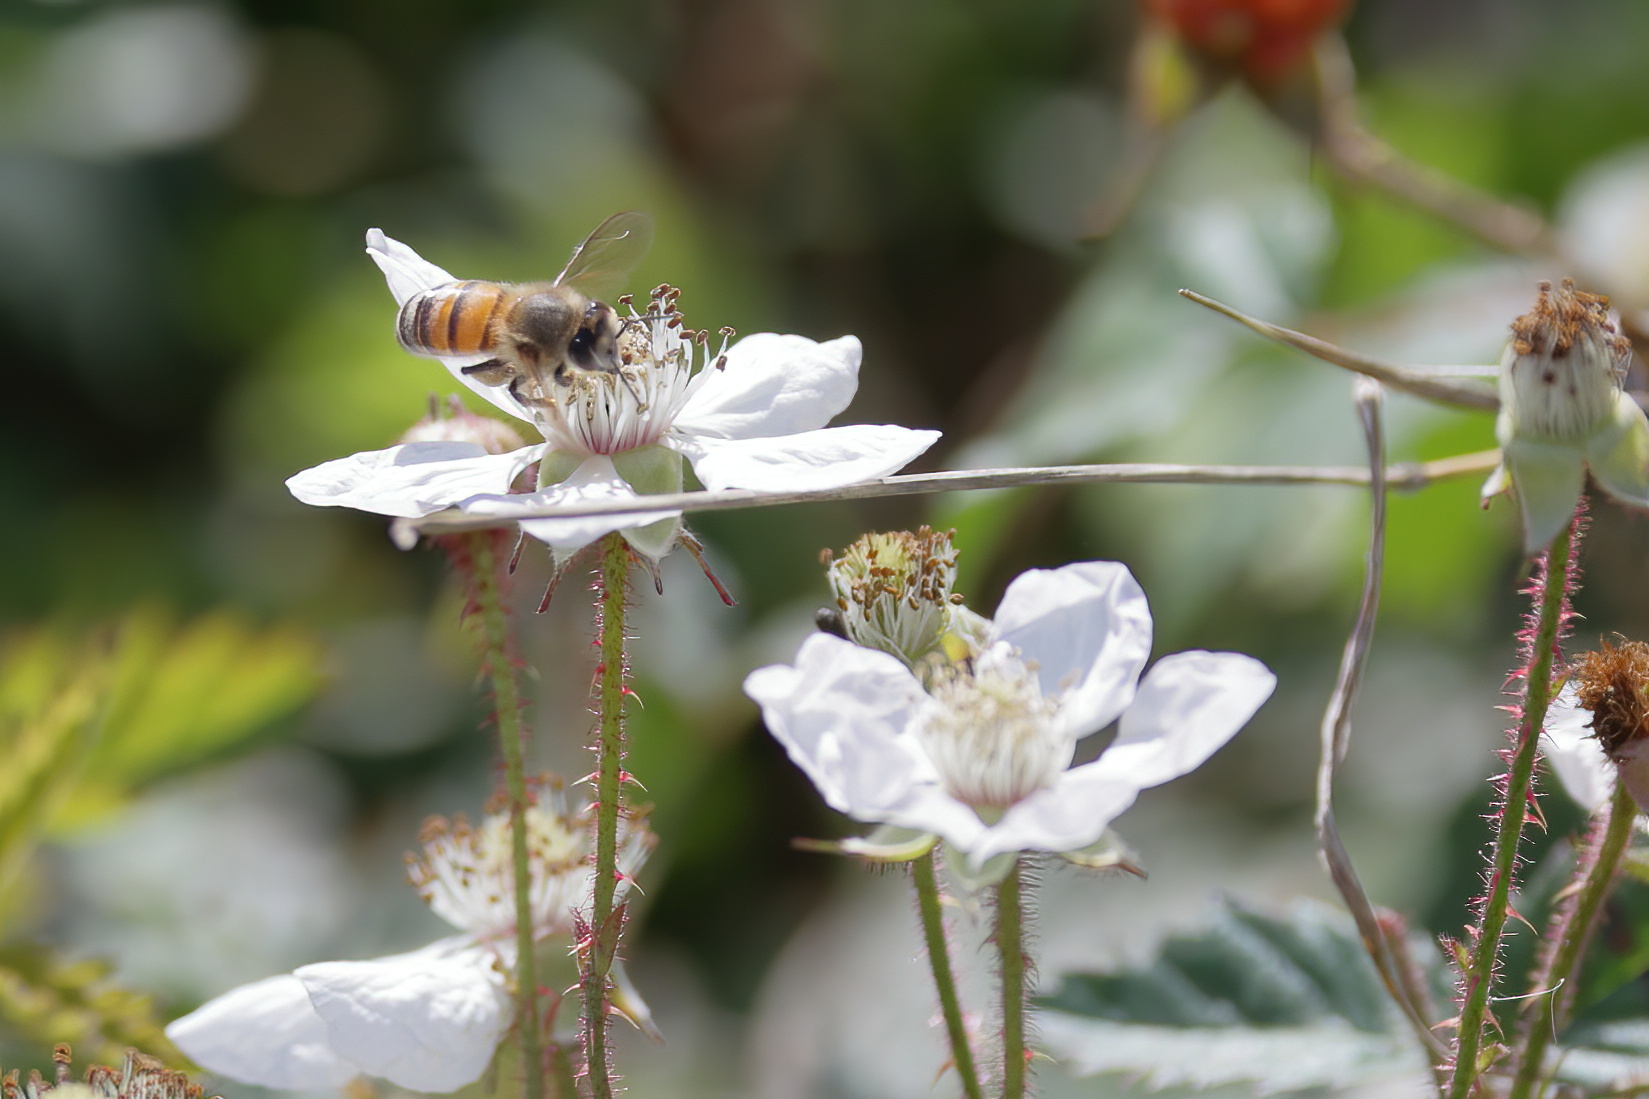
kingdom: Animalia
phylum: Arthropoda
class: Insecta
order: Hymenoptera
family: Apidae
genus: Apis
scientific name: Apis mellifera
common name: Honey bee
